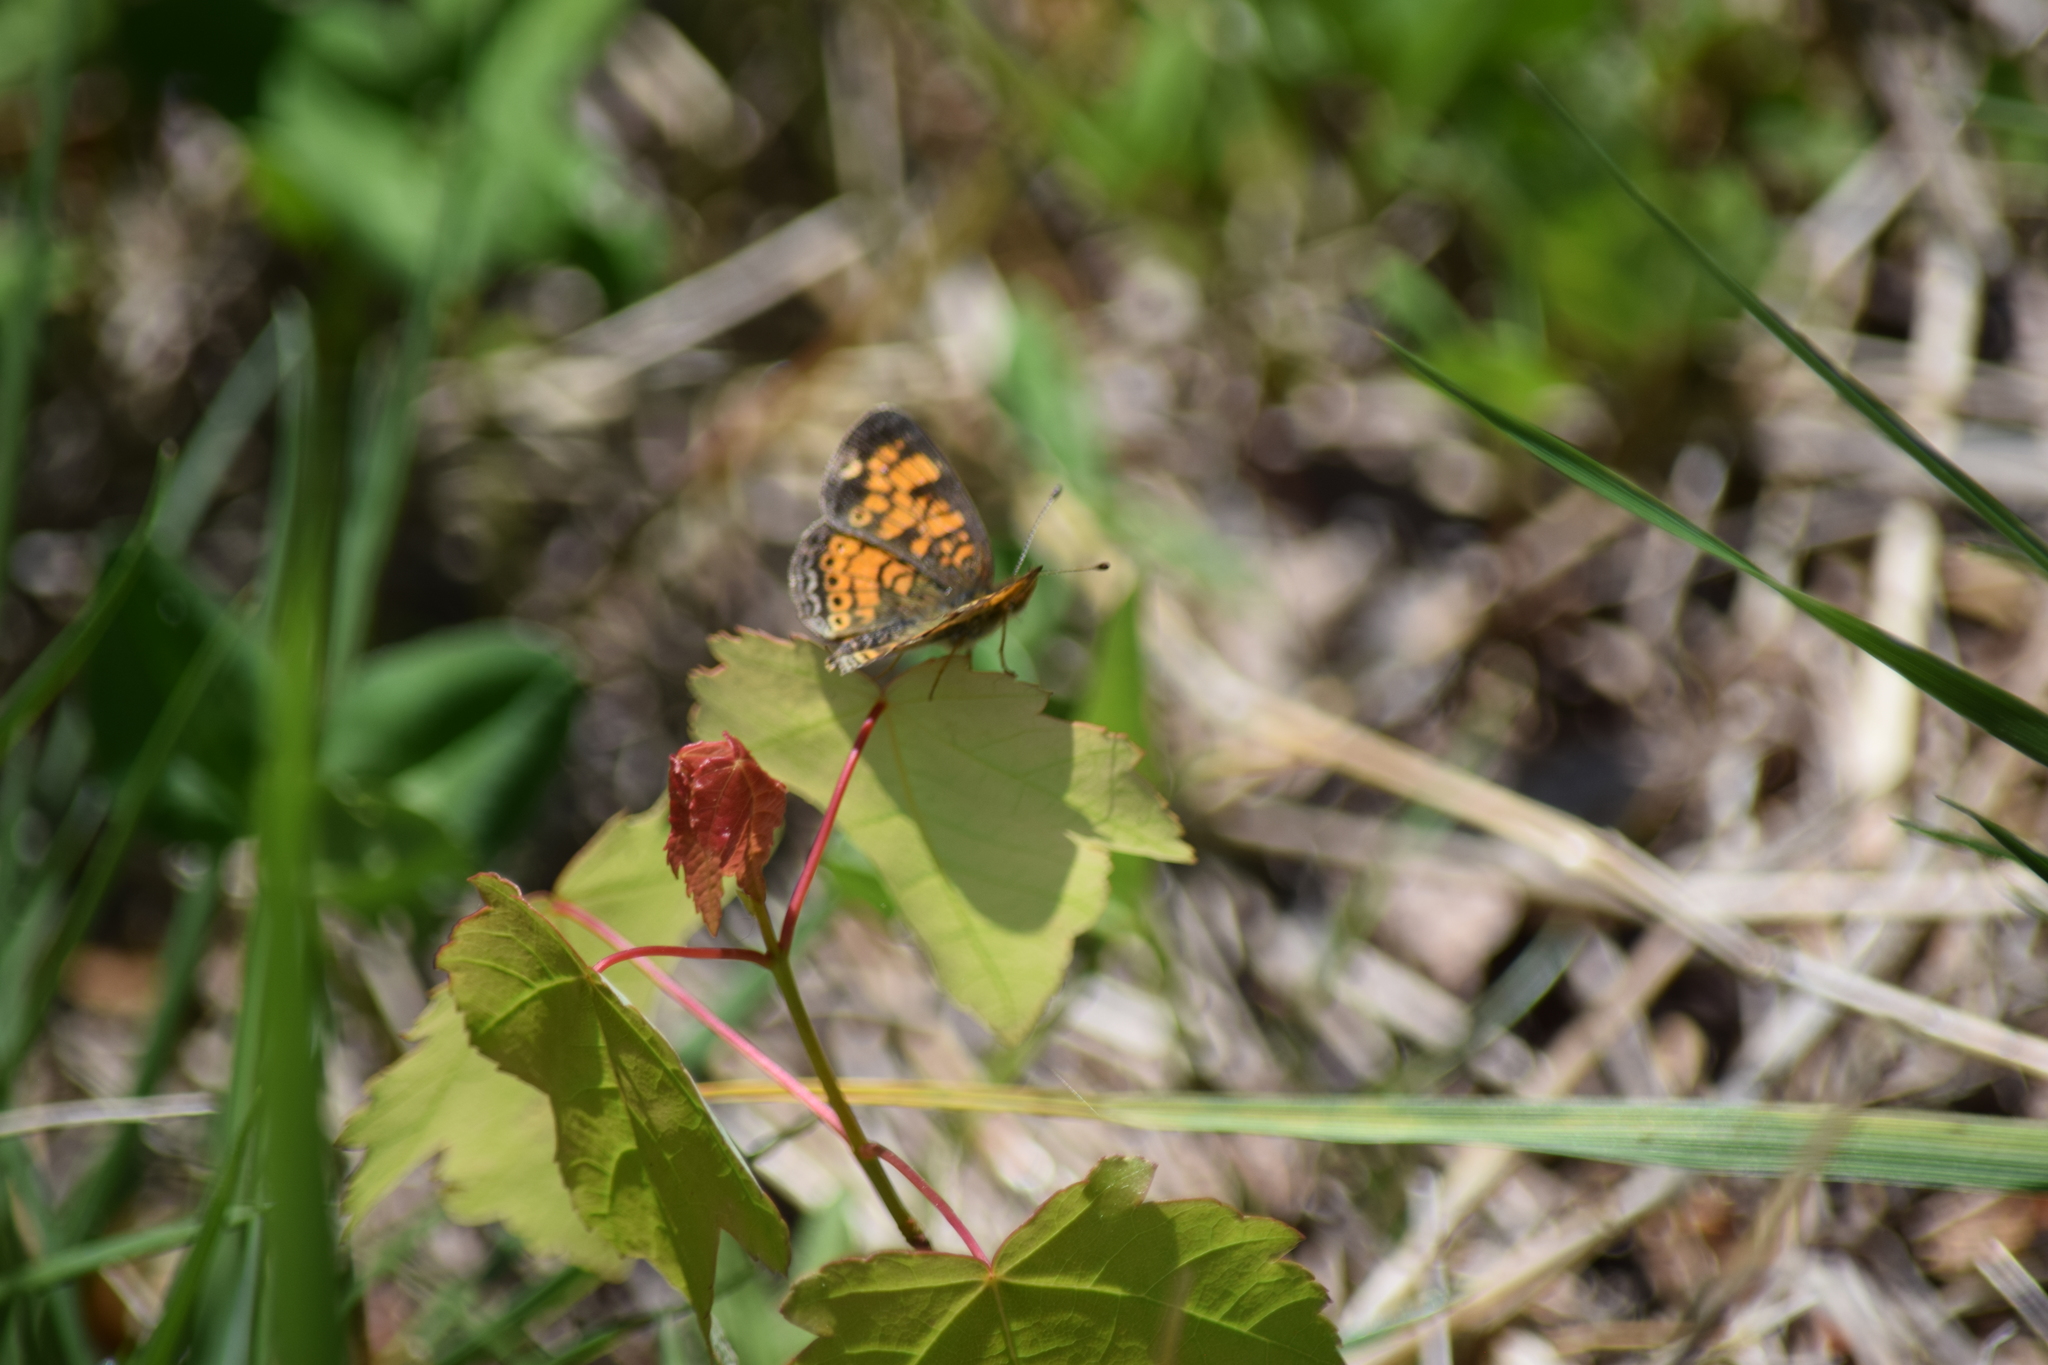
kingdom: Animalia
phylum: Arthropoda
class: Insecta
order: Lepidoptera
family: Nymphalidae
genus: Phyciodes
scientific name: Phyciodes tharos
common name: Pearl crescent
